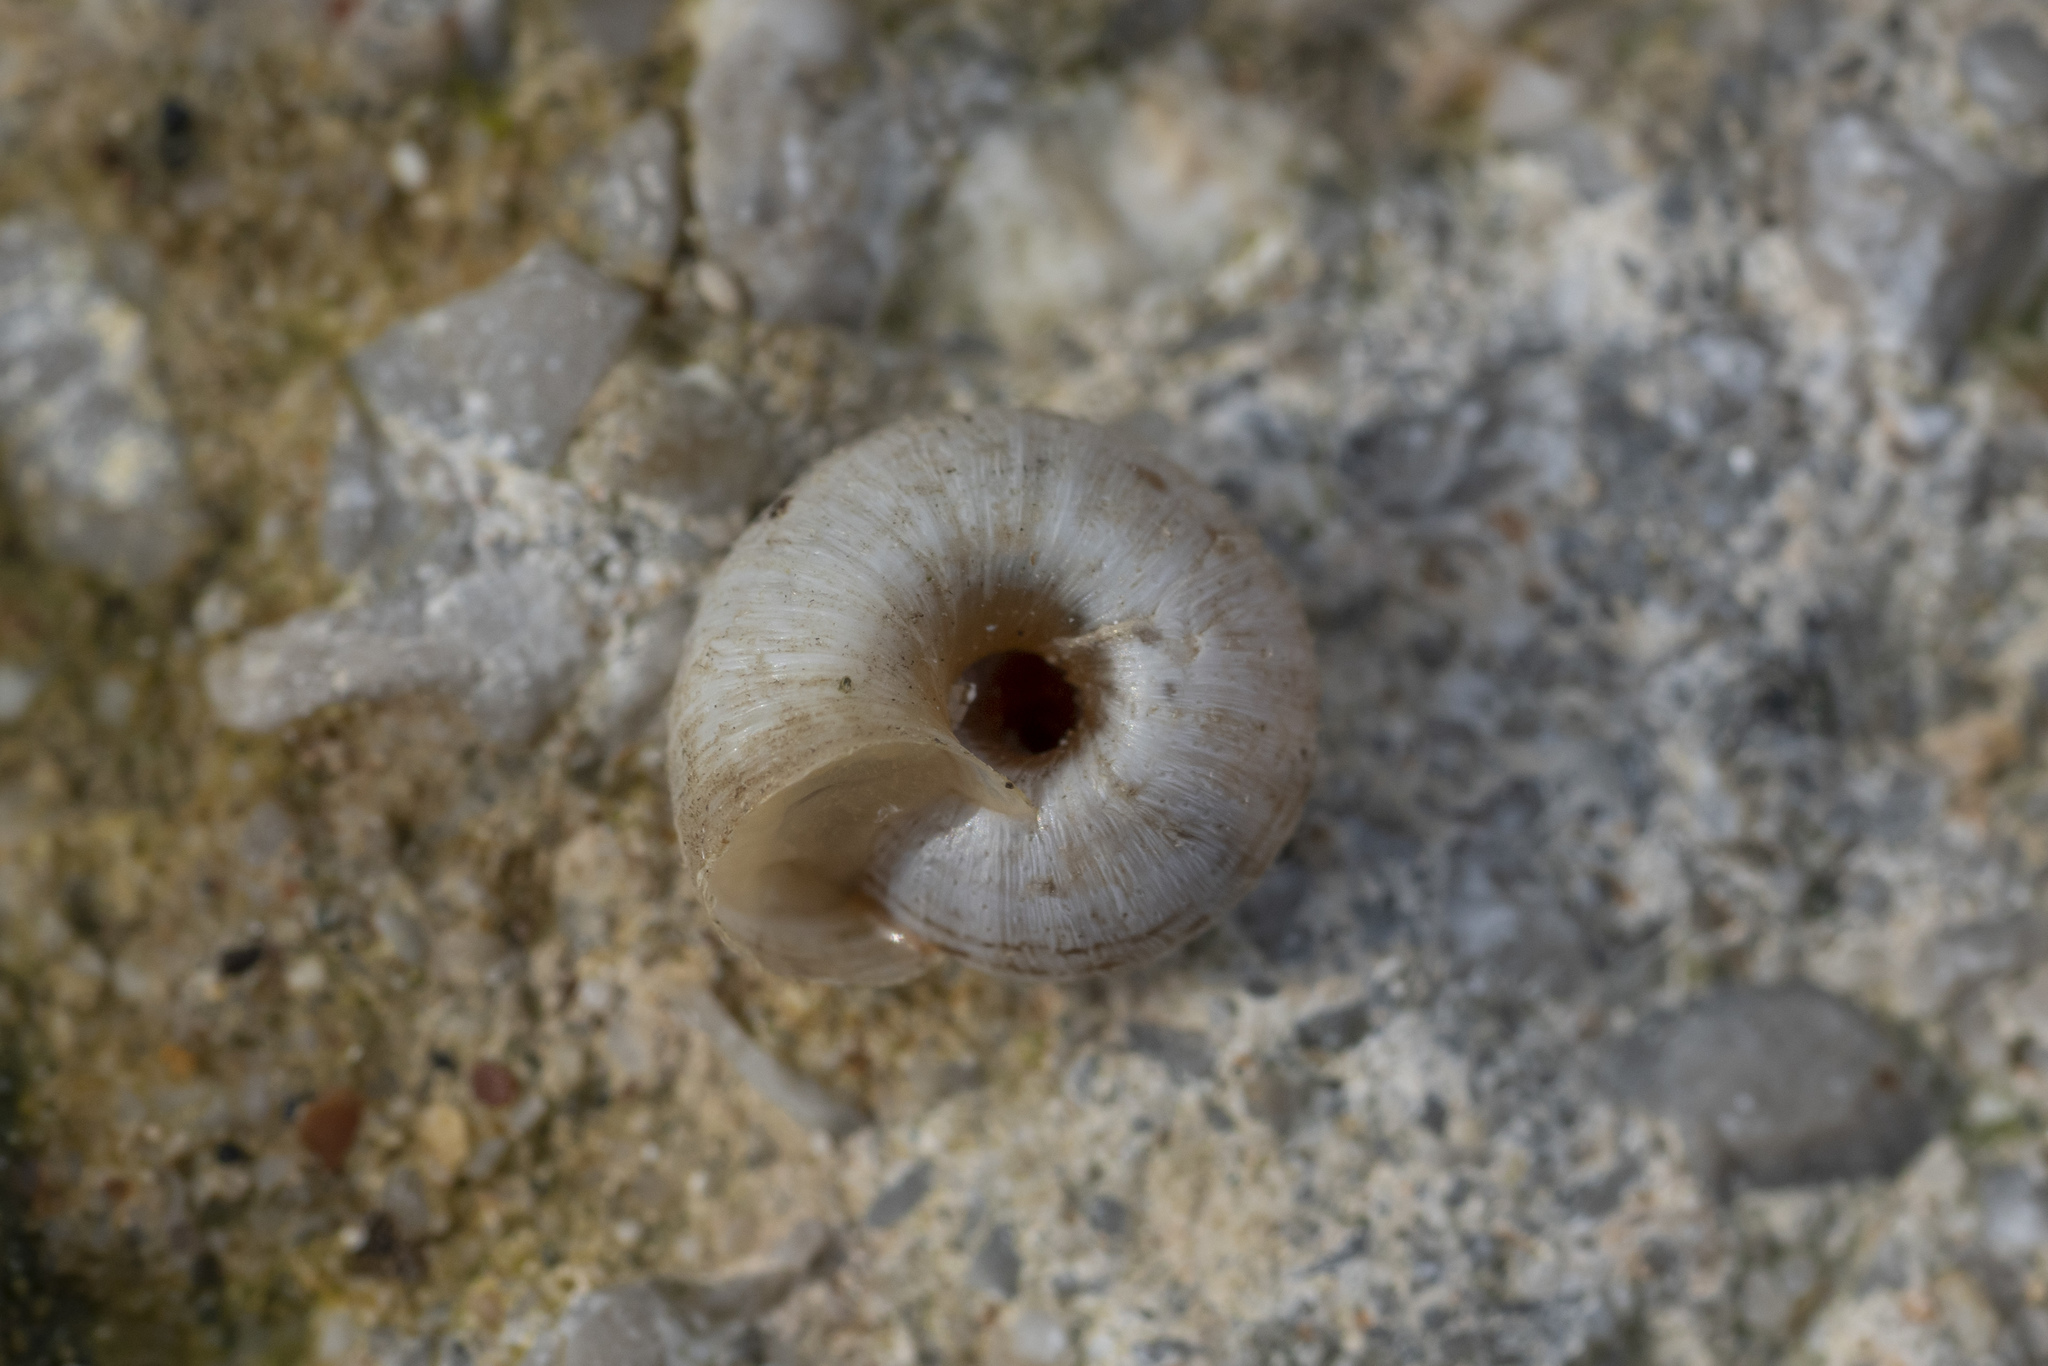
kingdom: Animalia
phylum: Mollusca
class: Gastropoda
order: Stylommatophora
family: Geomitridae
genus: Xerotricha
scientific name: Xerotricha apicina
